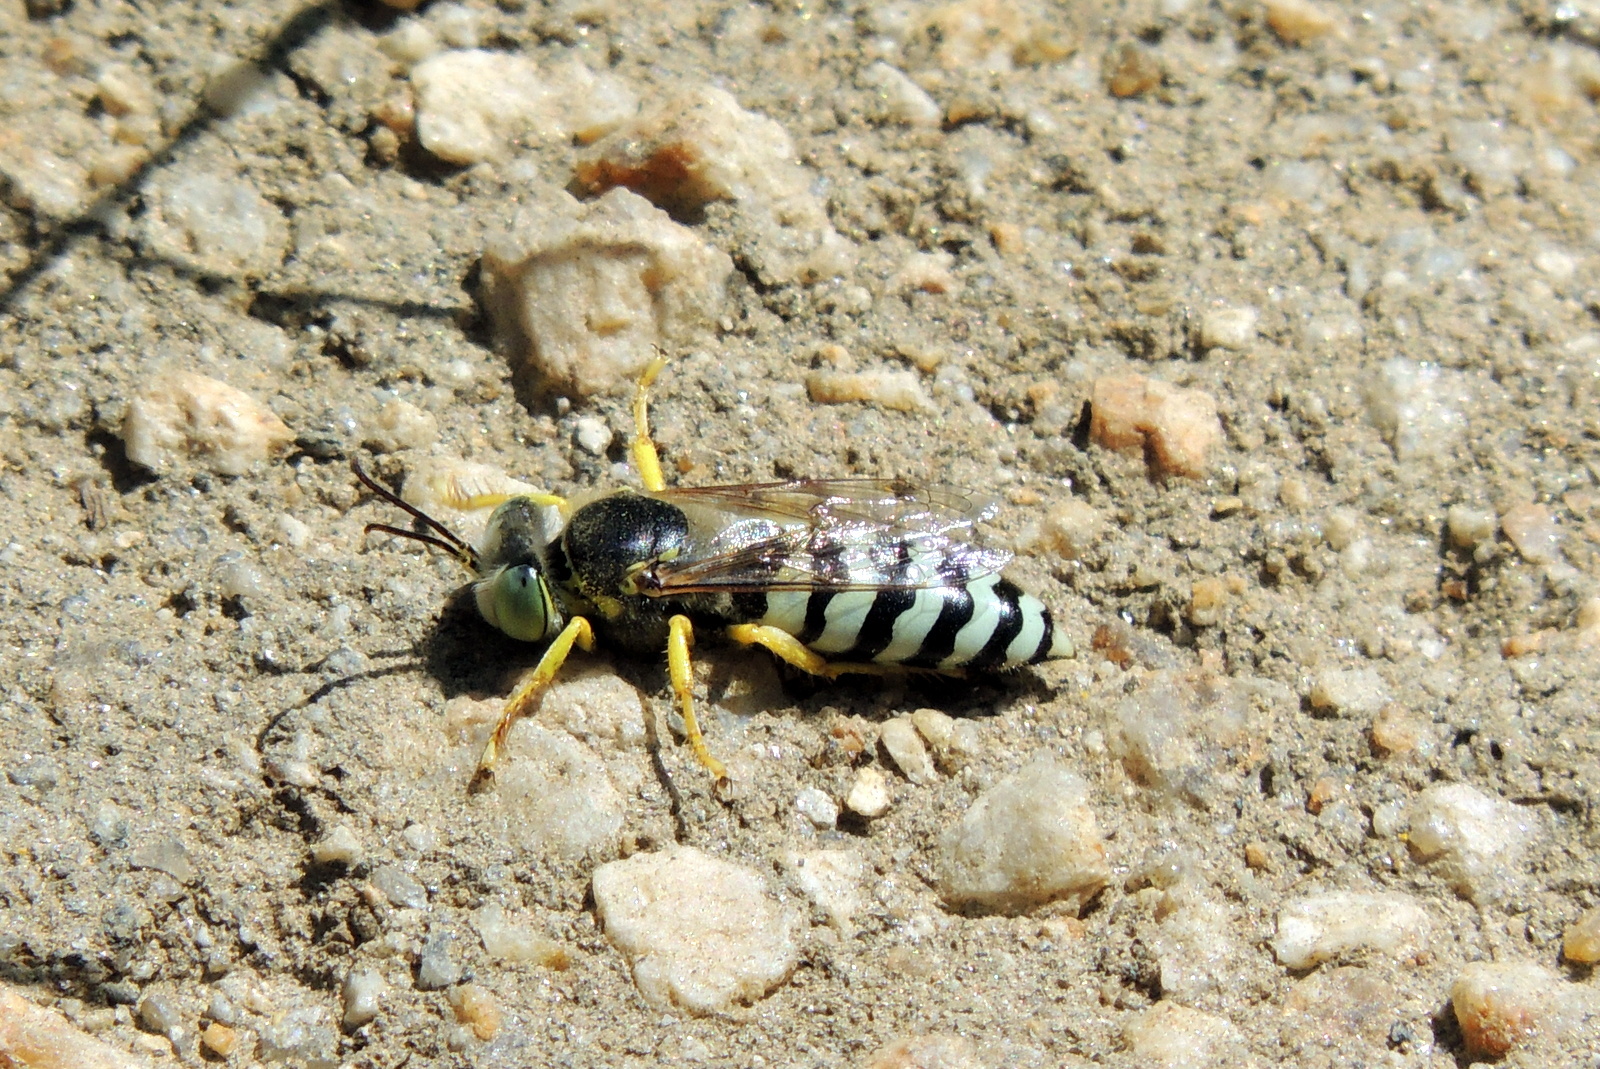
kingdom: Animalia
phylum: Arthropoda
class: Insecta
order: Hymenoptera
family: Crabronidae
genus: Bembix
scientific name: Bembix americana
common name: American sand wasp
